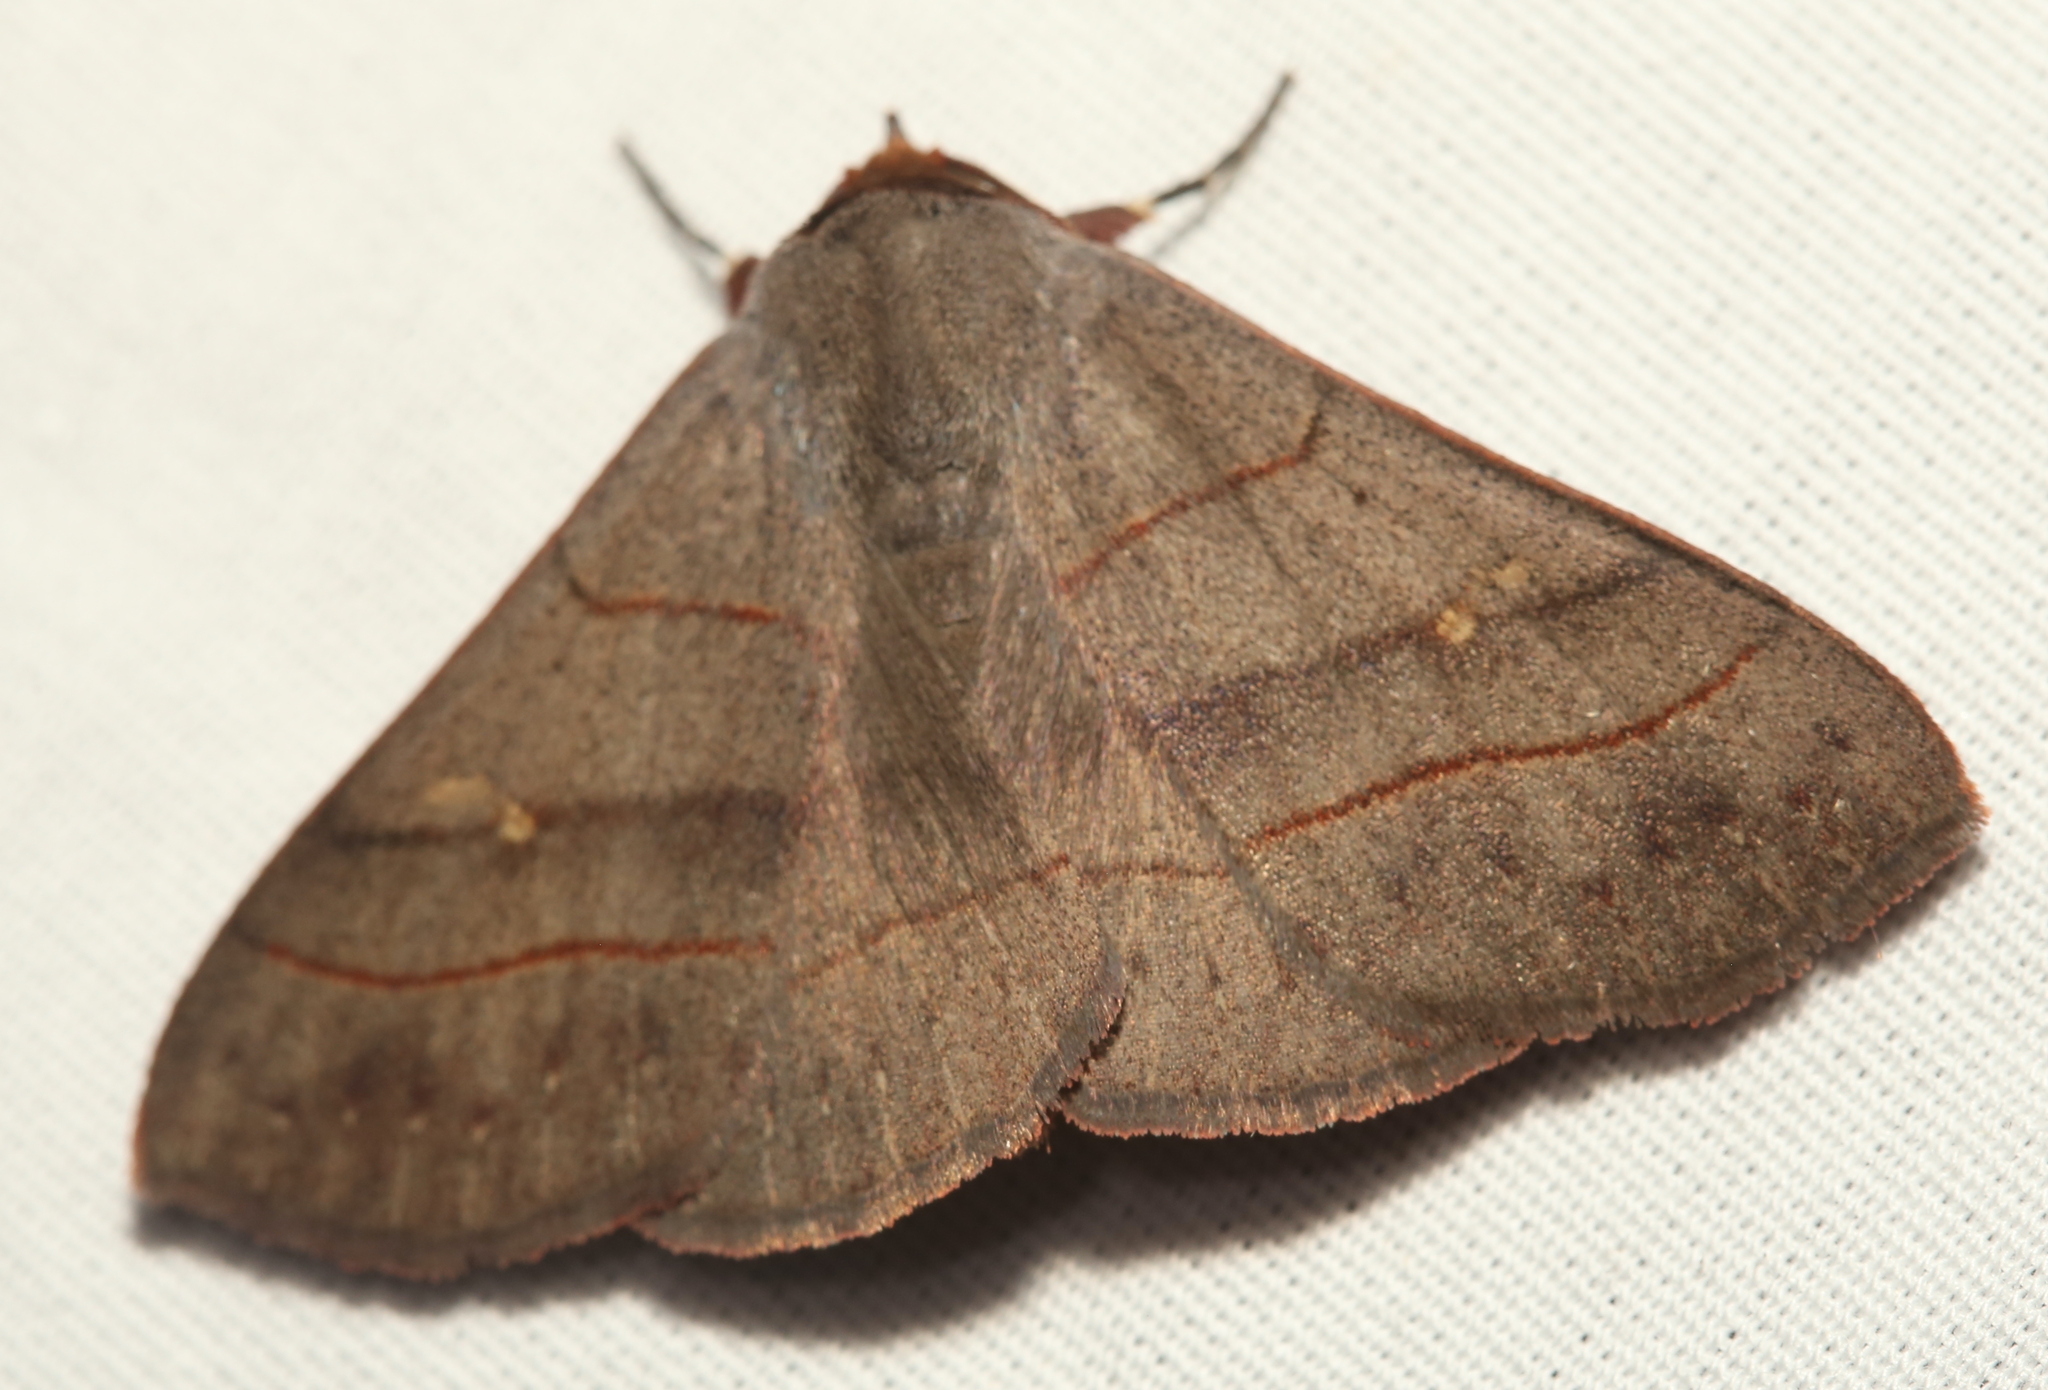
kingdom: Animalia
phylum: Arthropoda
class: Insecta
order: Lepidoptera
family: Erebidae
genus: Panopoda
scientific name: Panopoda rufimargo
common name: Red-lined panopoda moth
